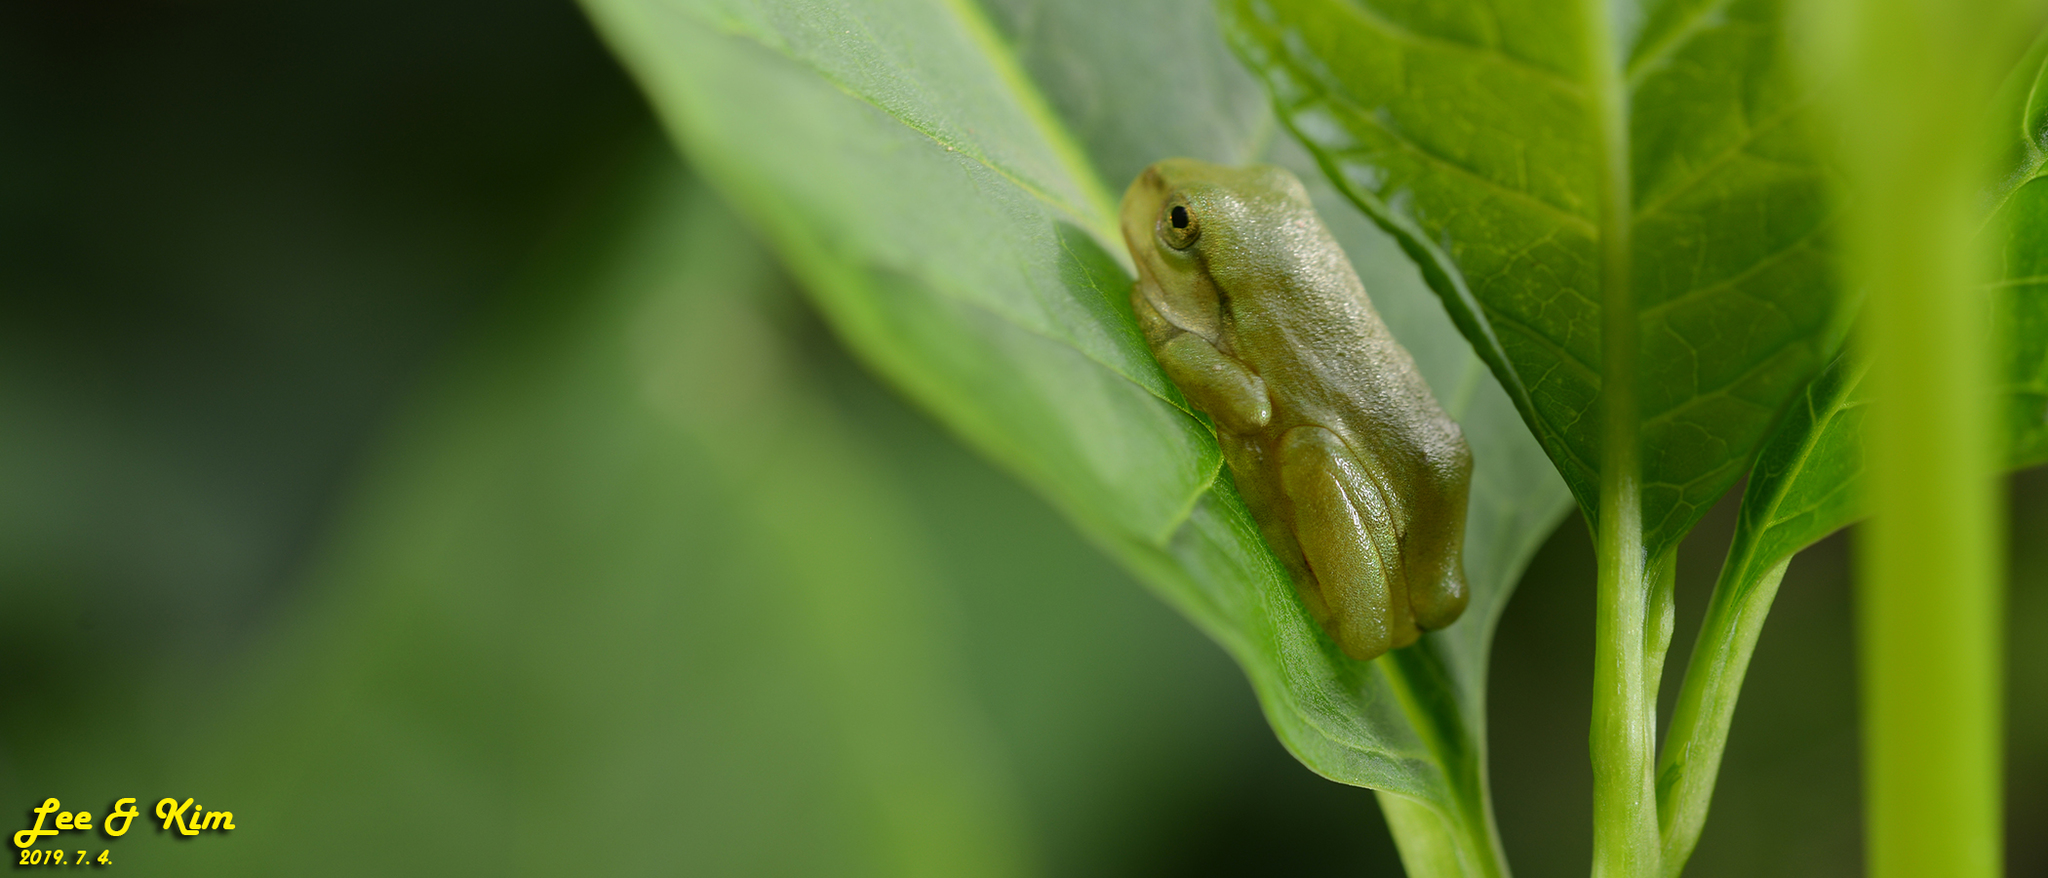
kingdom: Animalia
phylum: Chordata
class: Amphibia
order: Anura
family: Hylidae
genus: Dryophytes
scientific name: Dryophytes japonicus
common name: Japanese treefrog
